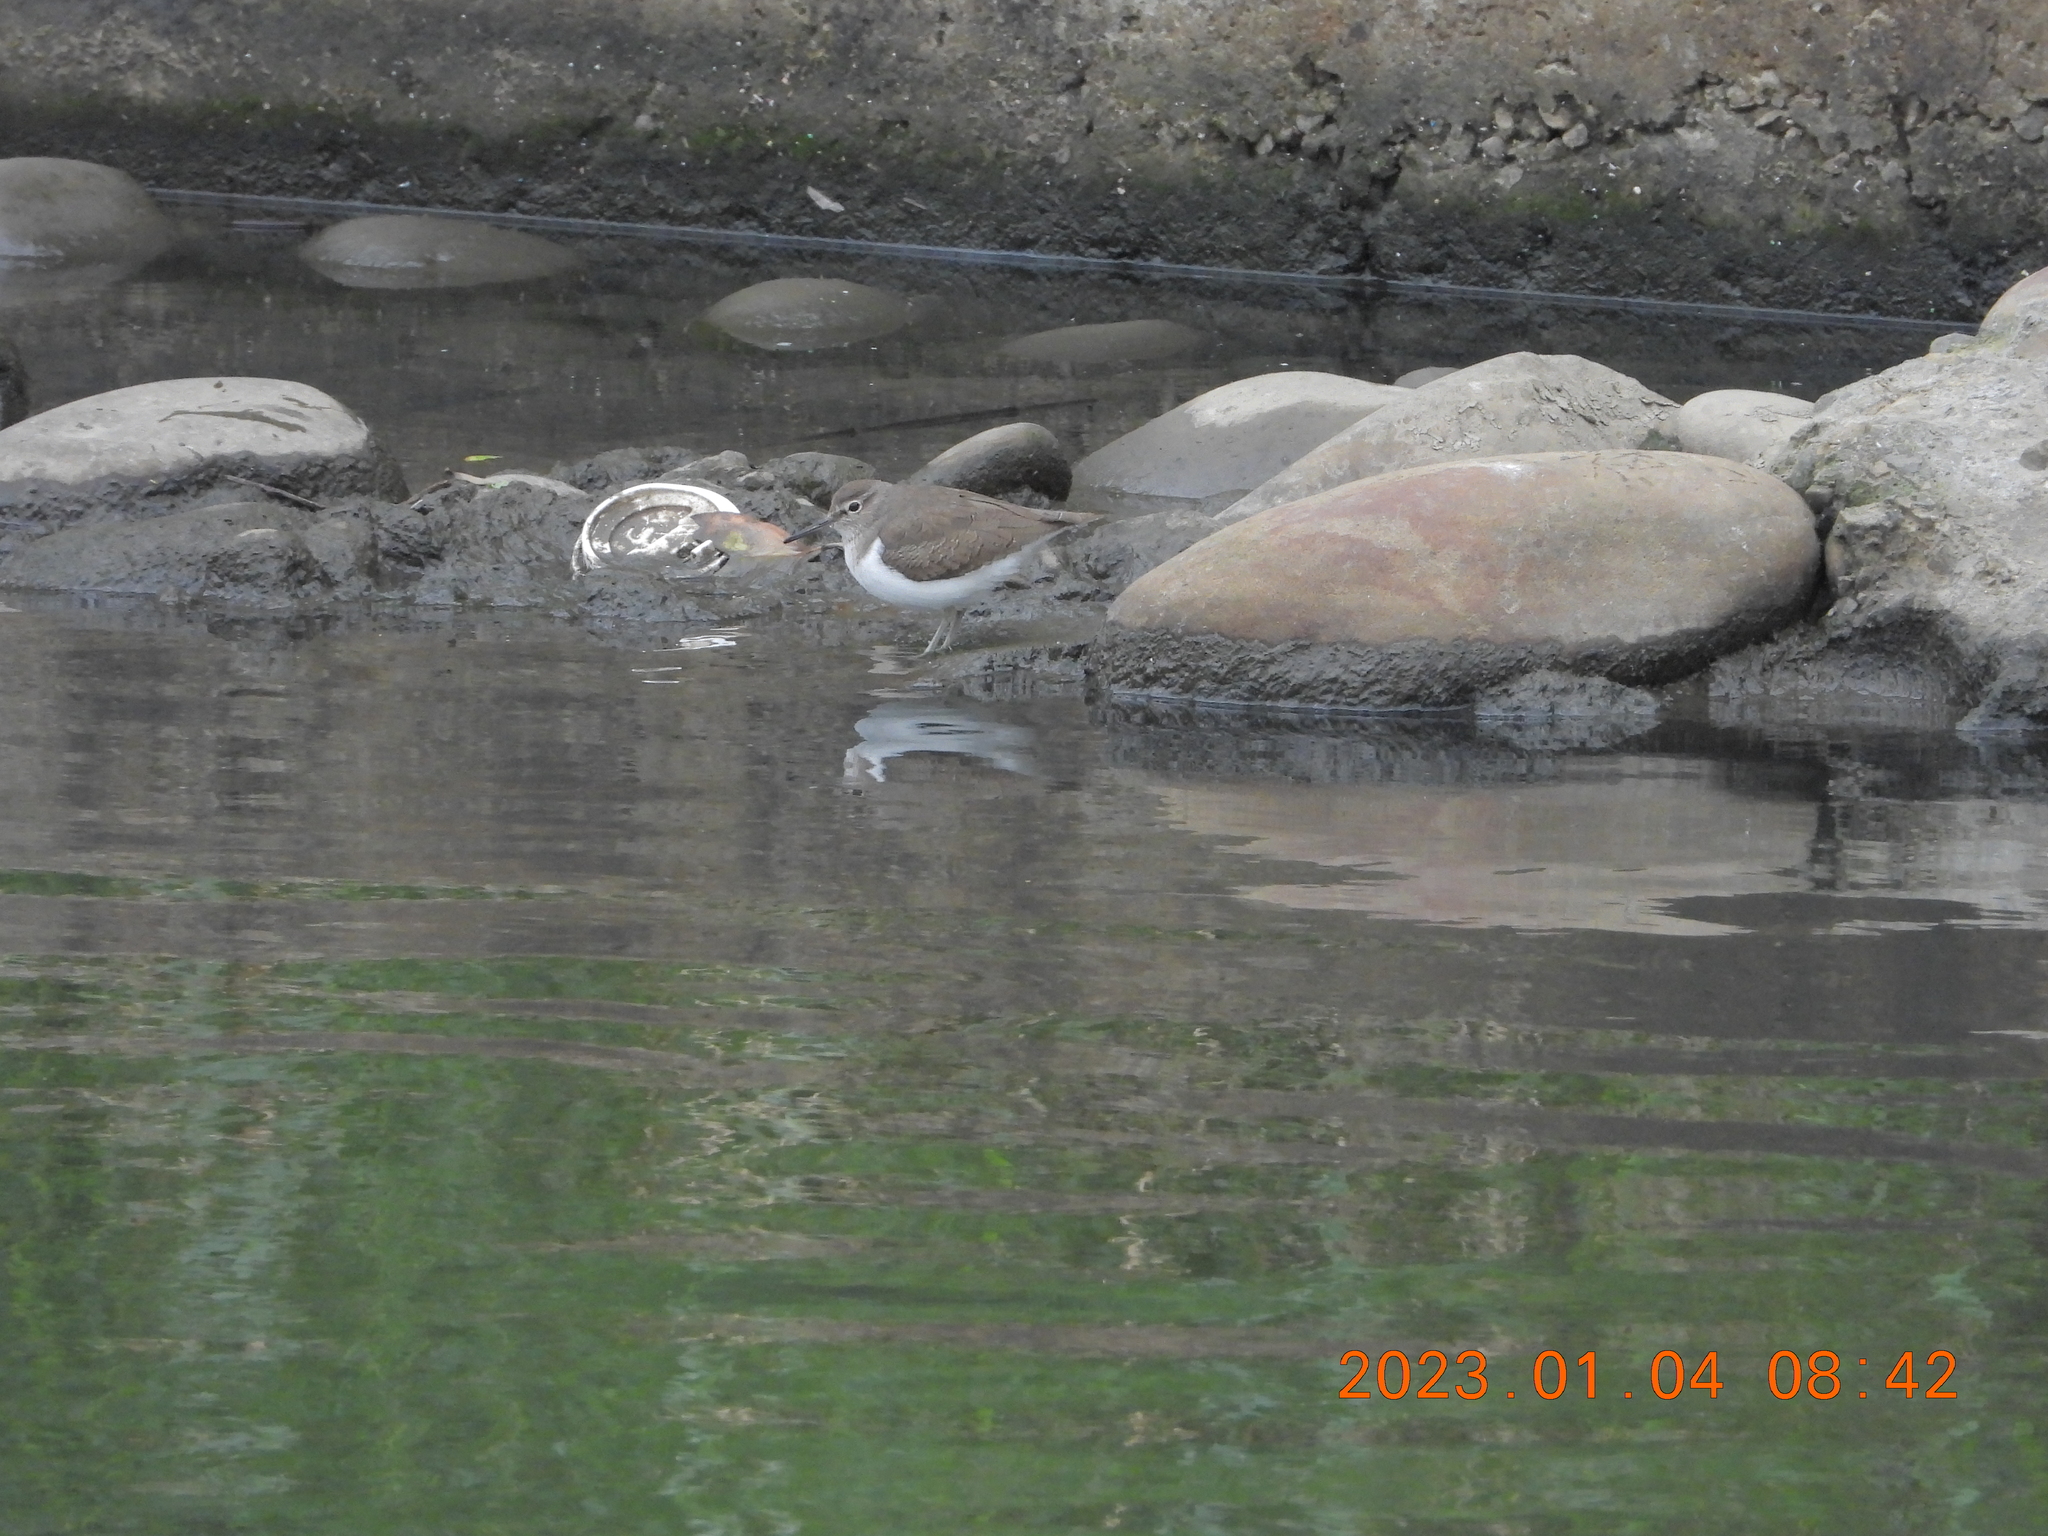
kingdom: Animalia
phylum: Chordata
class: Aves
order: Charadriiformes
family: Scolopacidae
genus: Actitis
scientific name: Actitis hypoleucos
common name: Common sandpiper
